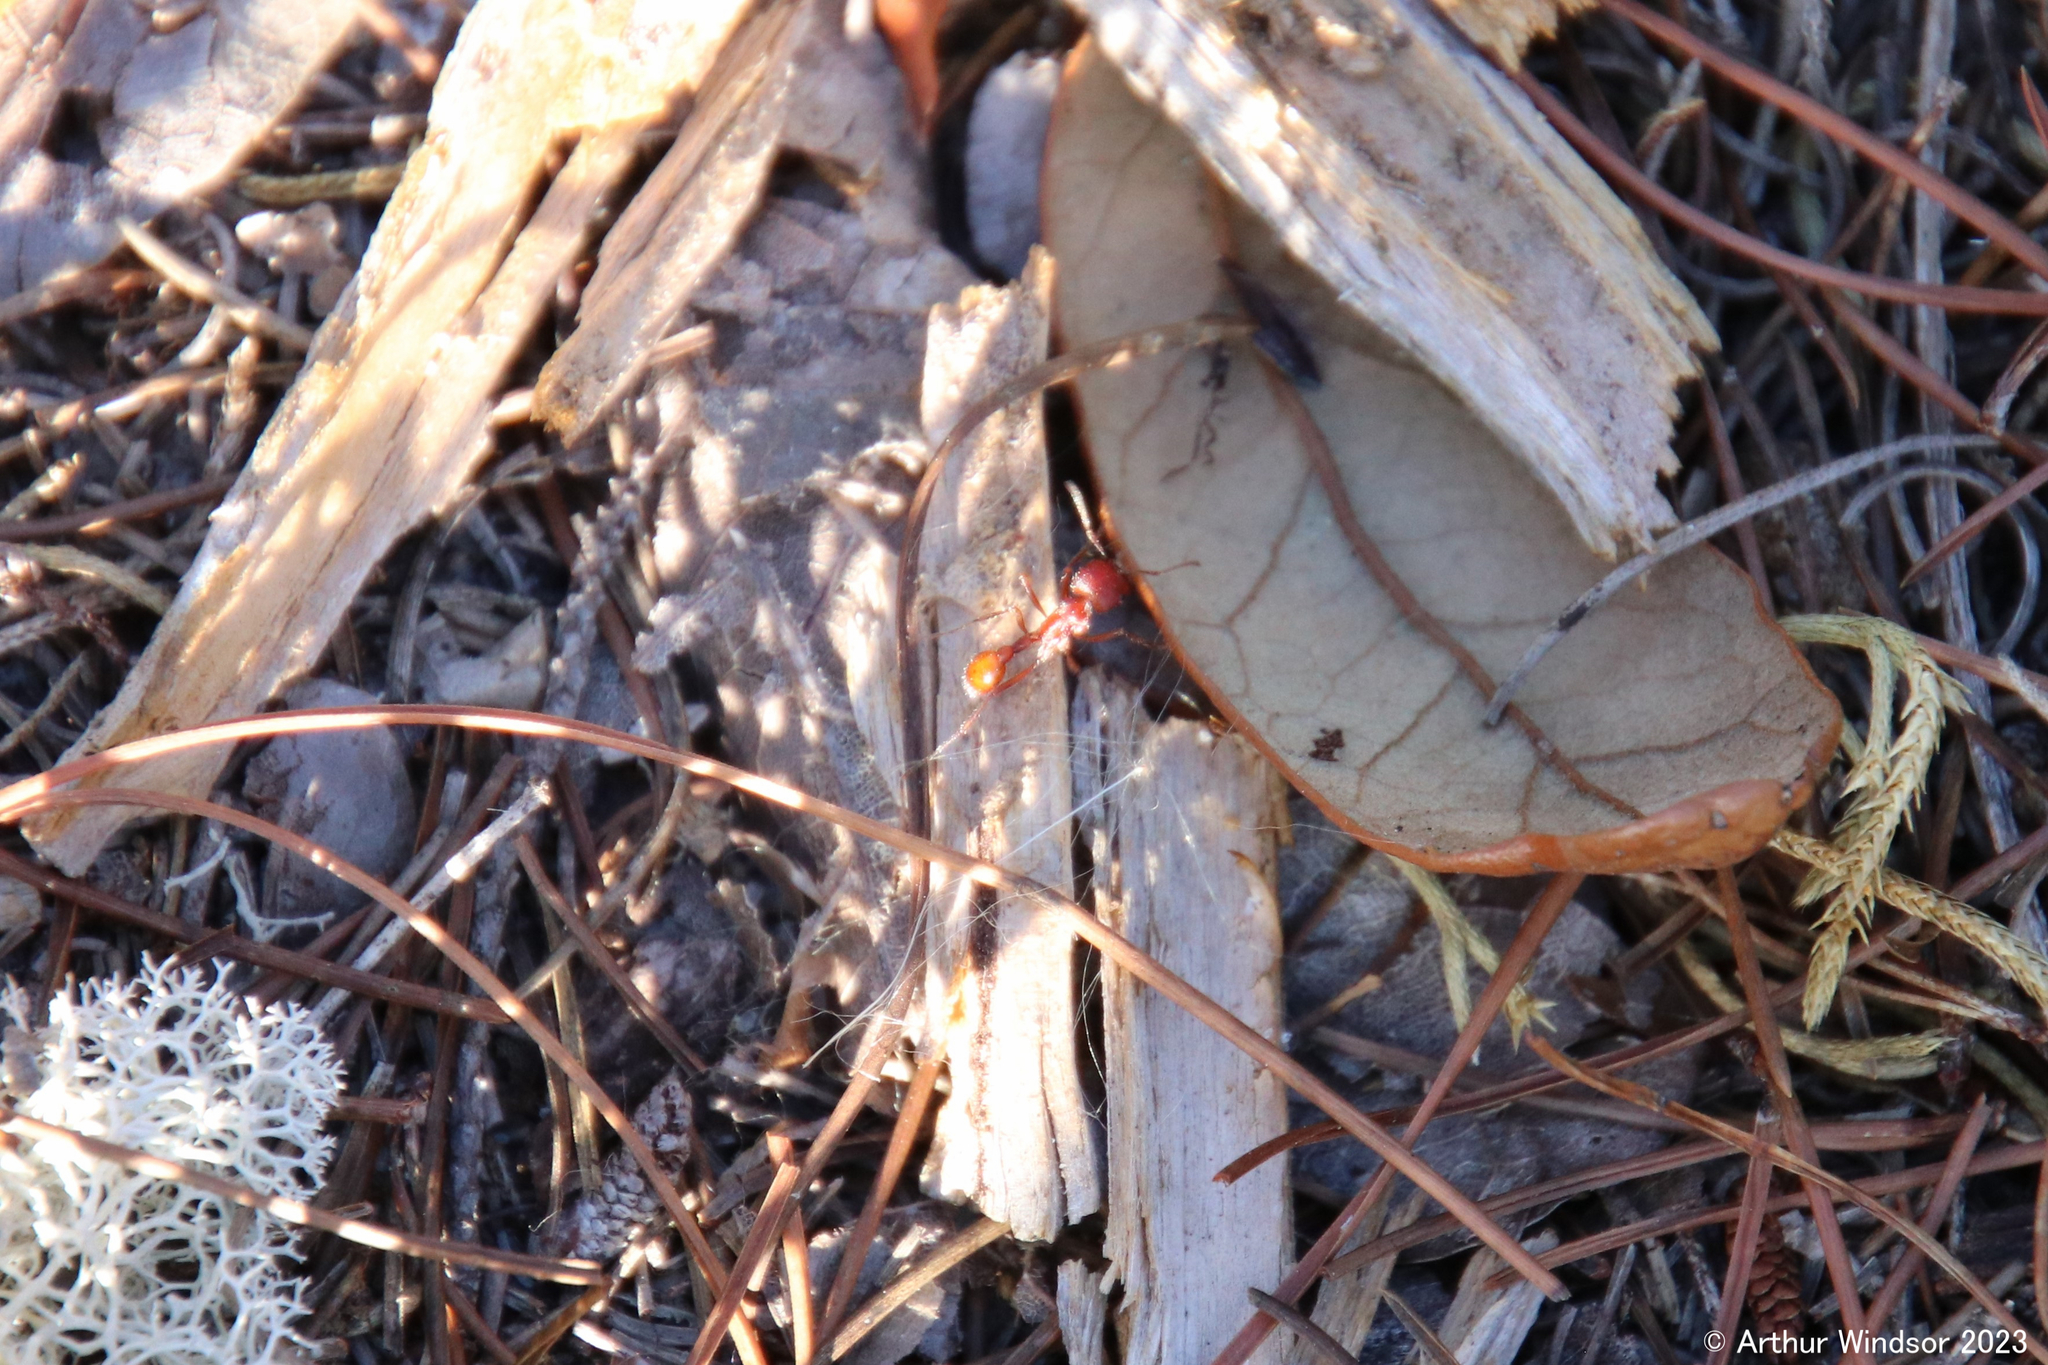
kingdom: Animalia
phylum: Arthropoda
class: Insecta
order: Hymenoptera
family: Formicidae
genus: Pogonomyrmex
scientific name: Pogonomyrmex badius
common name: Florida harvester ant
